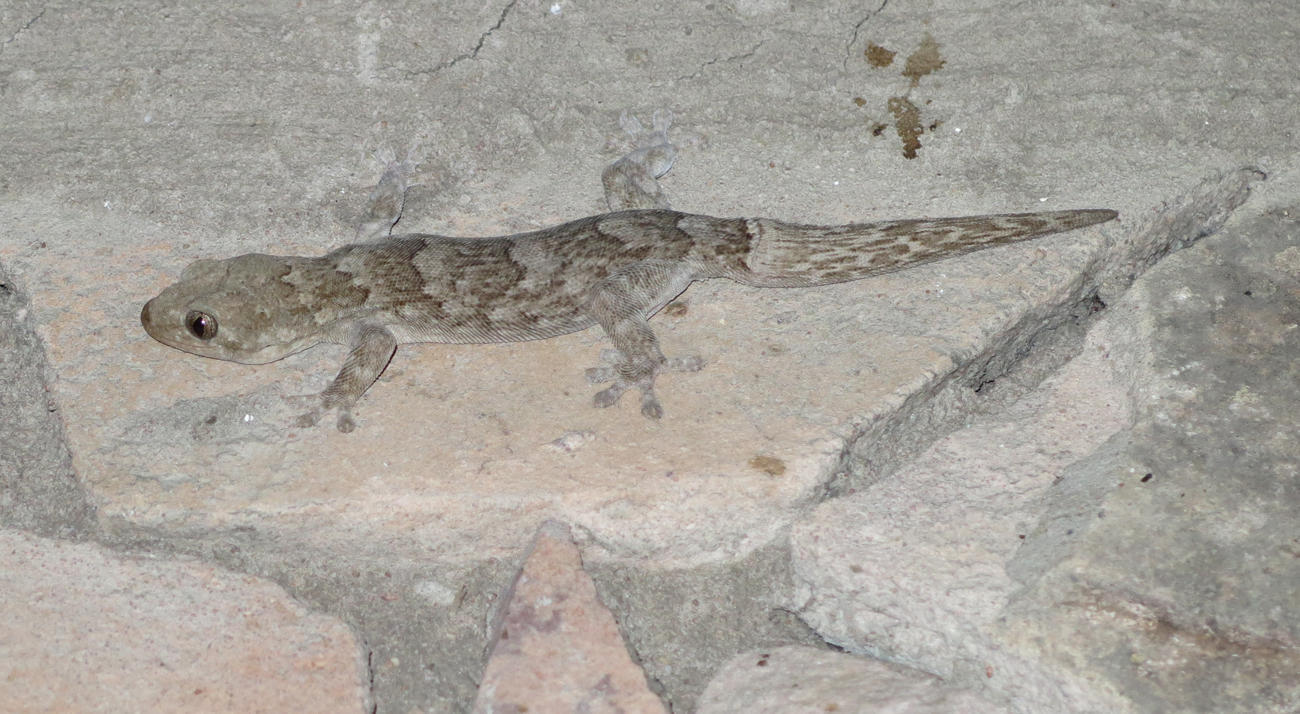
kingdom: Animalia
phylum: Chordata
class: Squamata
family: Gekkonidae
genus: Homopholis
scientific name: Homopholis walbergii
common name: Wahlberg’s velvet gecko
